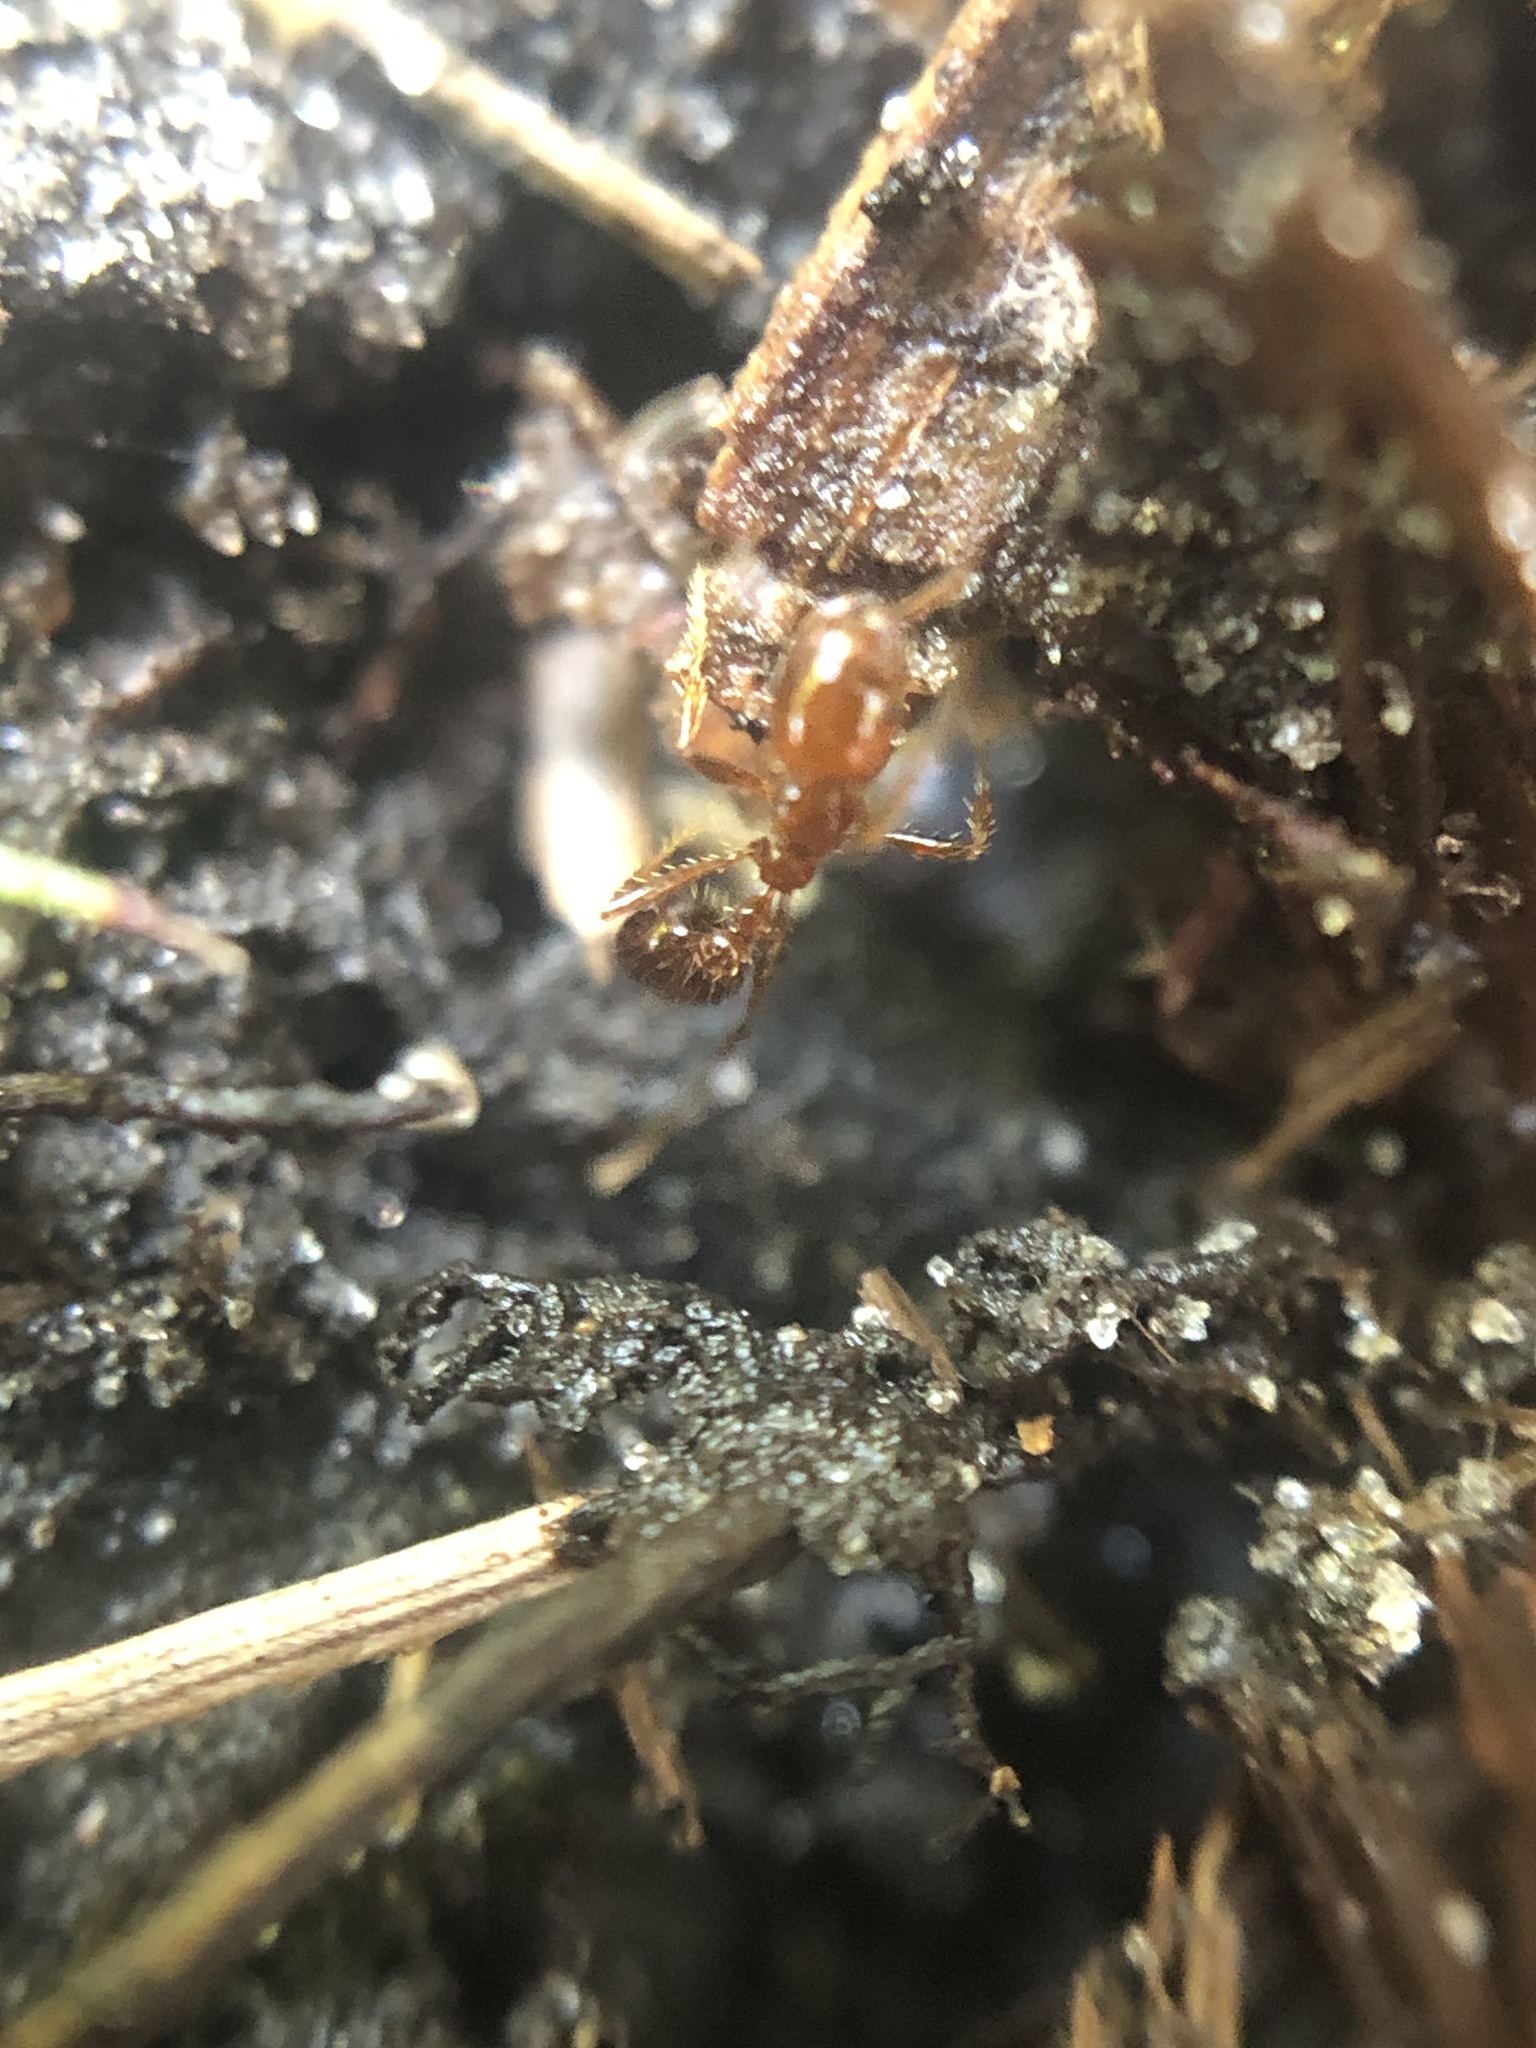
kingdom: Animalia
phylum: Arthropoda
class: Insecta
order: Hymenoptera
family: Formicidae
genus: Solenopsis
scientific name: Solenopsis invicta
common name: Red imported fire ant
